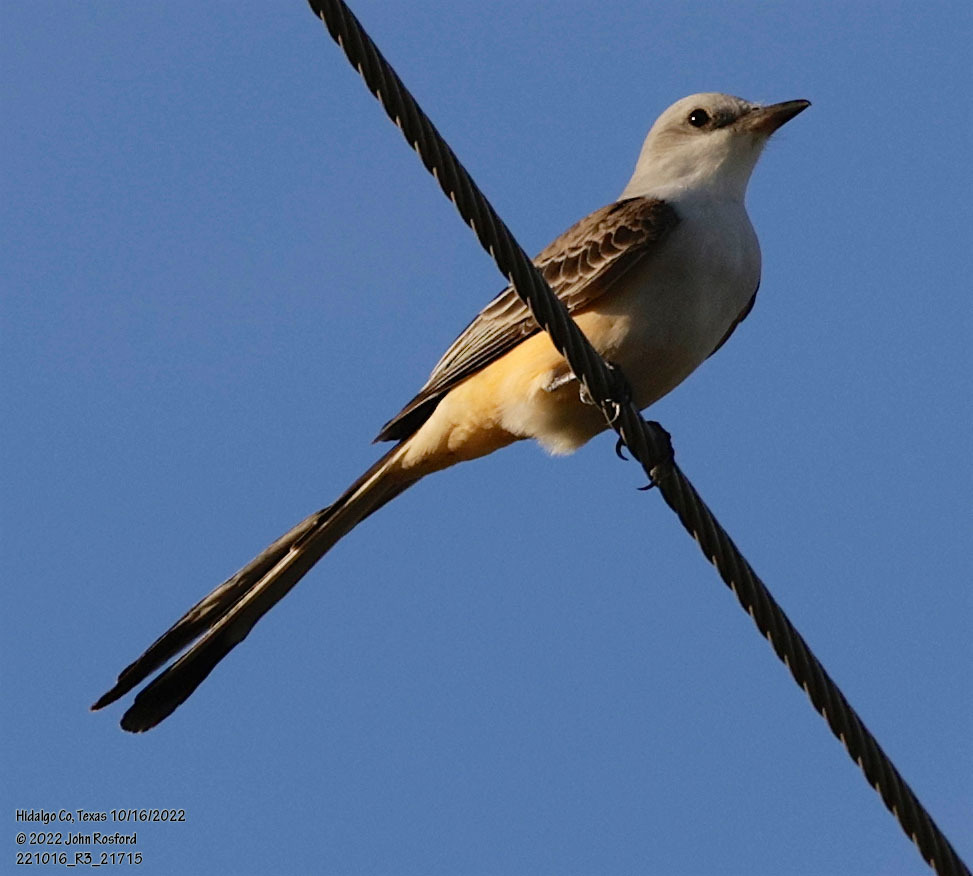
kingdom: Animalia
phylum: Chordata
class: Aves
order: Passeriformes
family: Tyrannidae
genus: Tyrannus
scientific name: Tyrannus forficatus
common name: Scissor-tailed flycatcher
